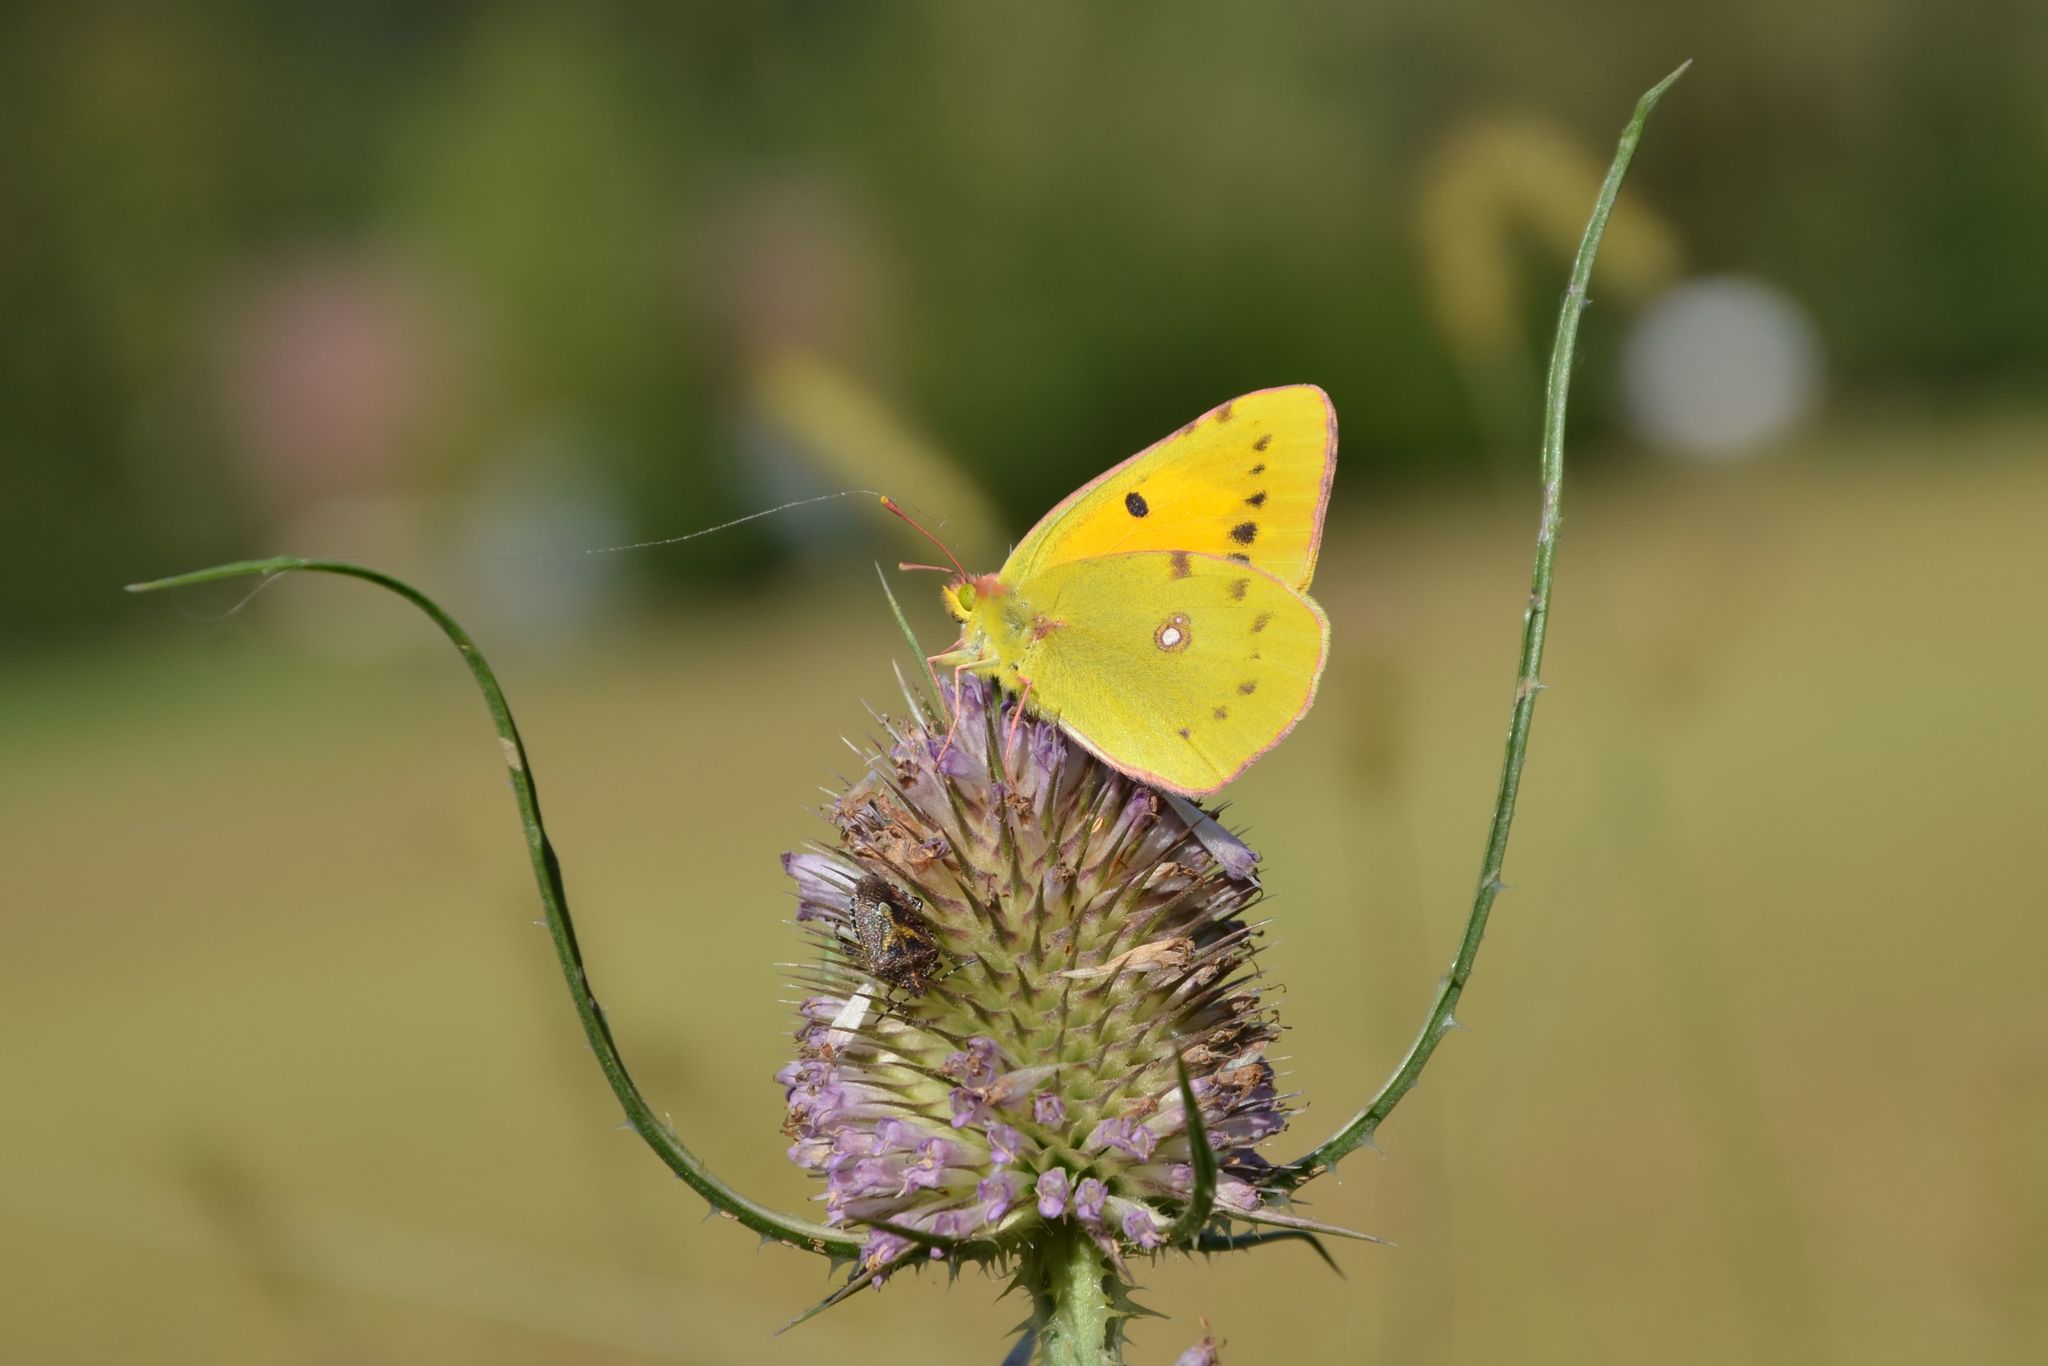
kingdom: Animalia
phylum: Arthropoda
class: Insecta
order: Lepidoptera
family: Pieridae
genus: Colias
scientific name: Colias croceus
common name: Clouded yellow
